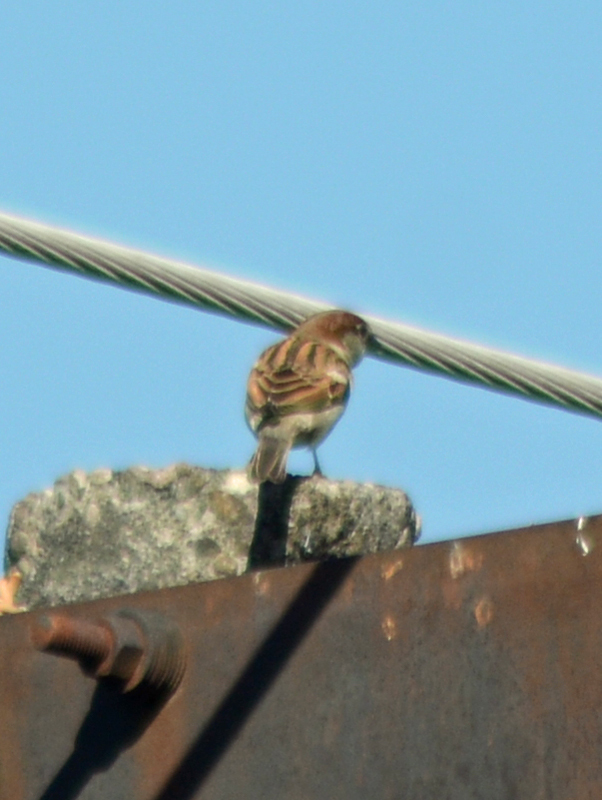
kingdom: Animalia
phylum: Chordata
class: Aves
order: Passeriformes
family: Passeridae
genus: Passer
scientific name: Passer domesticus
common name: House sparrow
